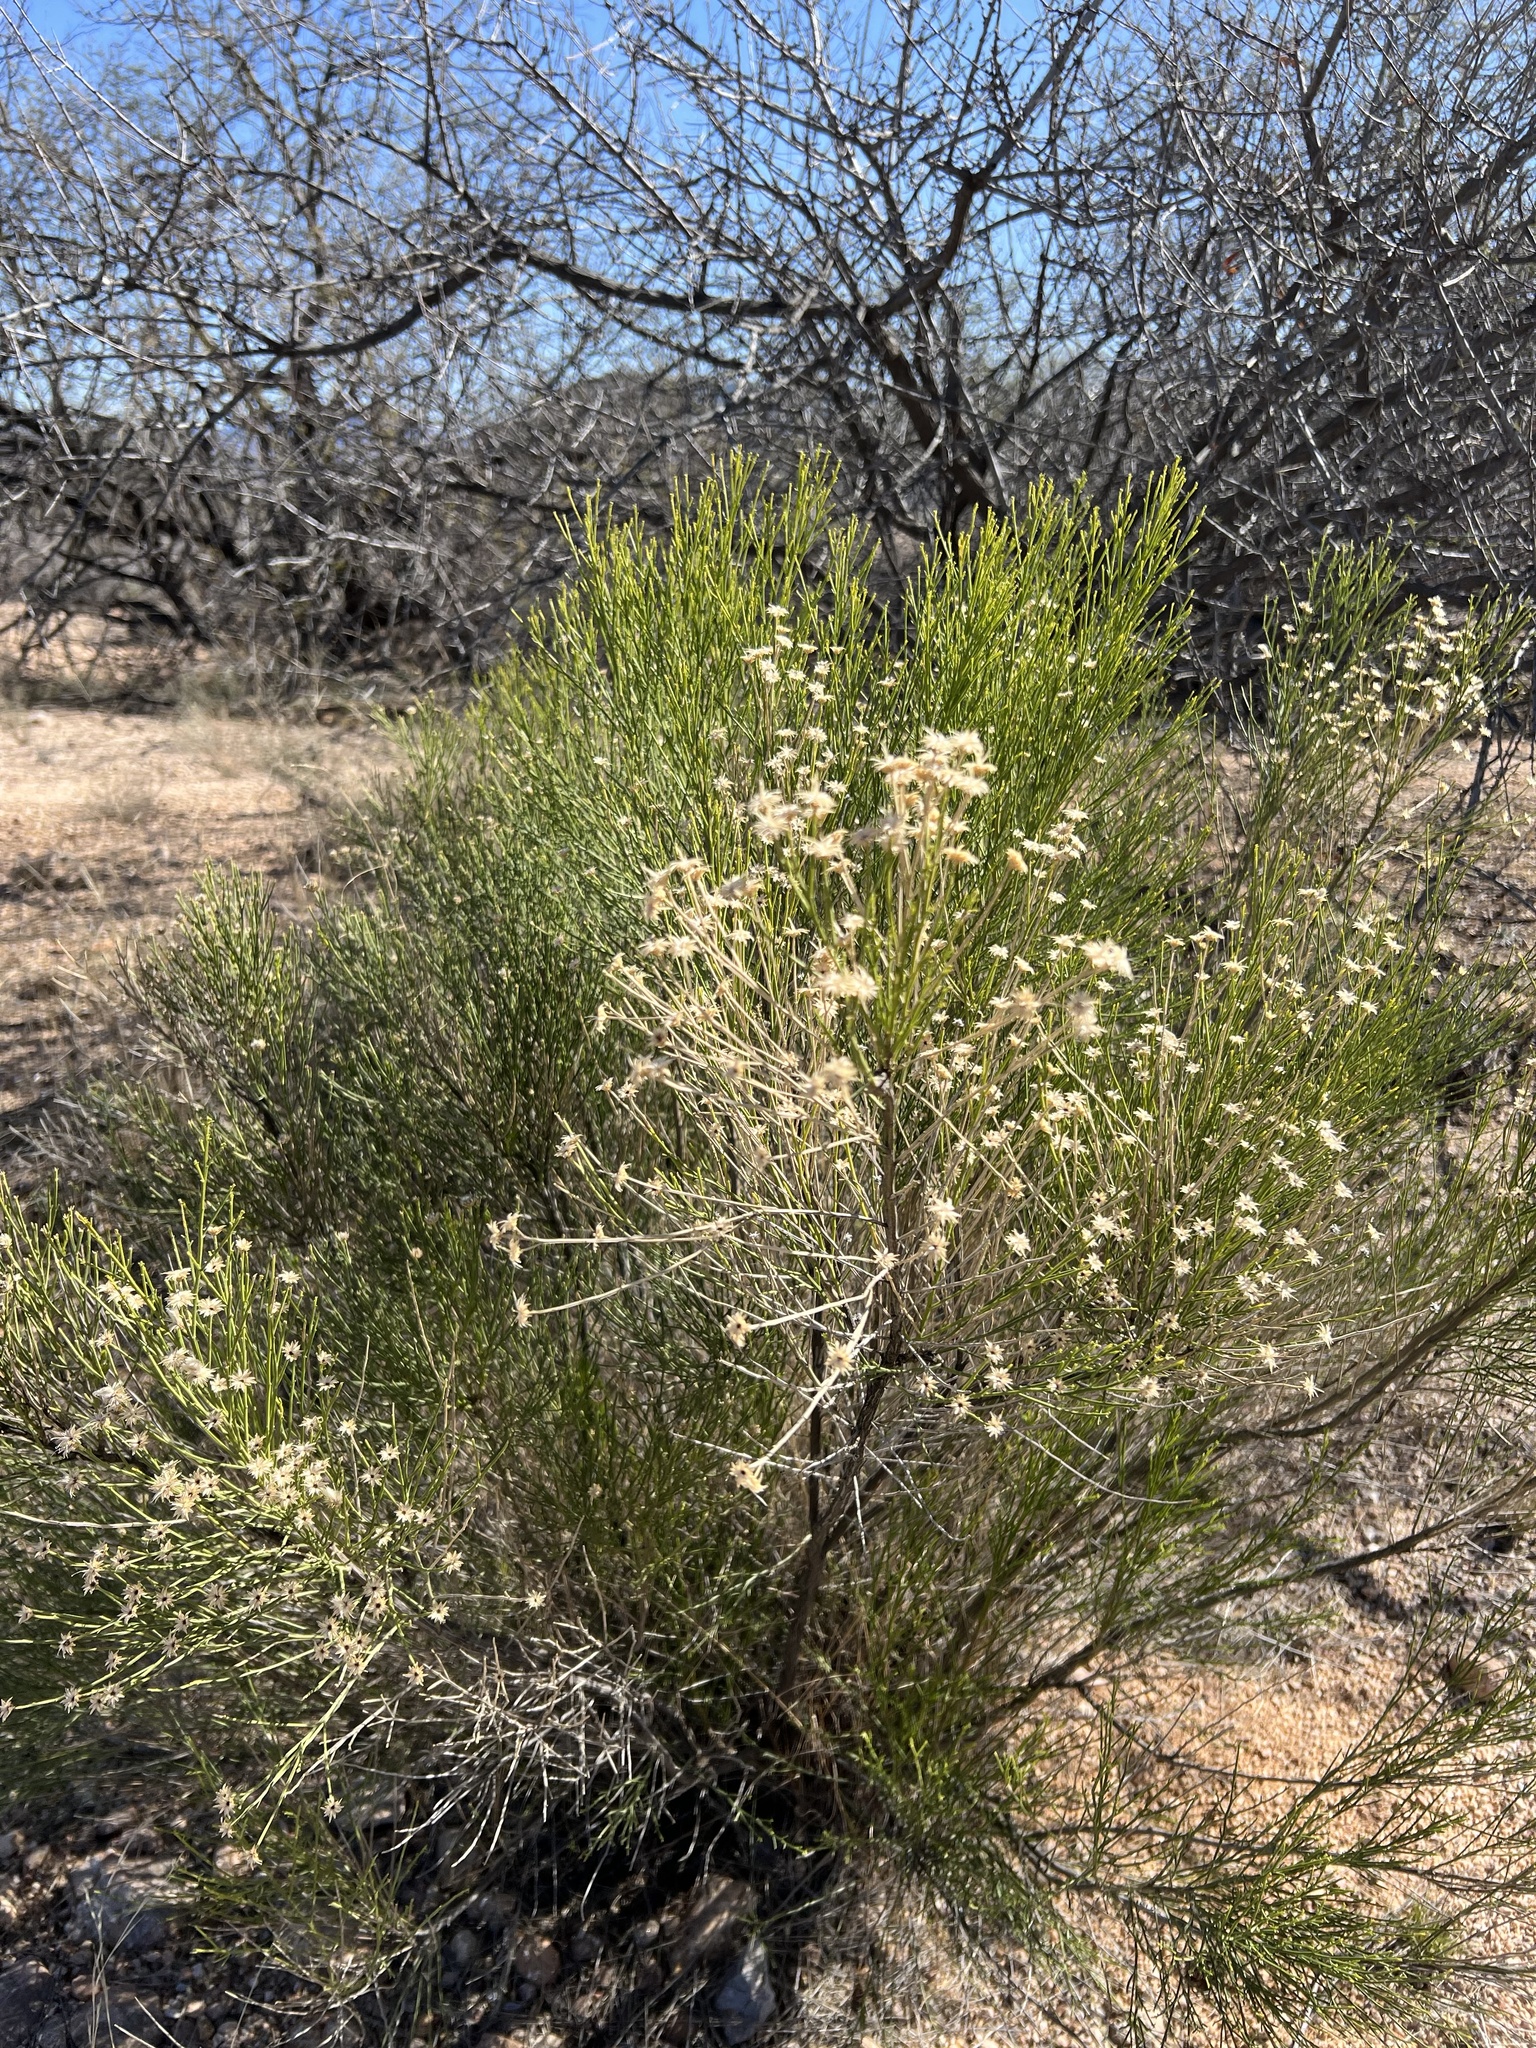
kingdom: Plantae
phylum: Tracheophyta
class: Magnoliopsida
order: Asterales
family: Asteraceae
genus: Baccharis
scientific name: Baccharis sarothroides
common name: Desert-broom
